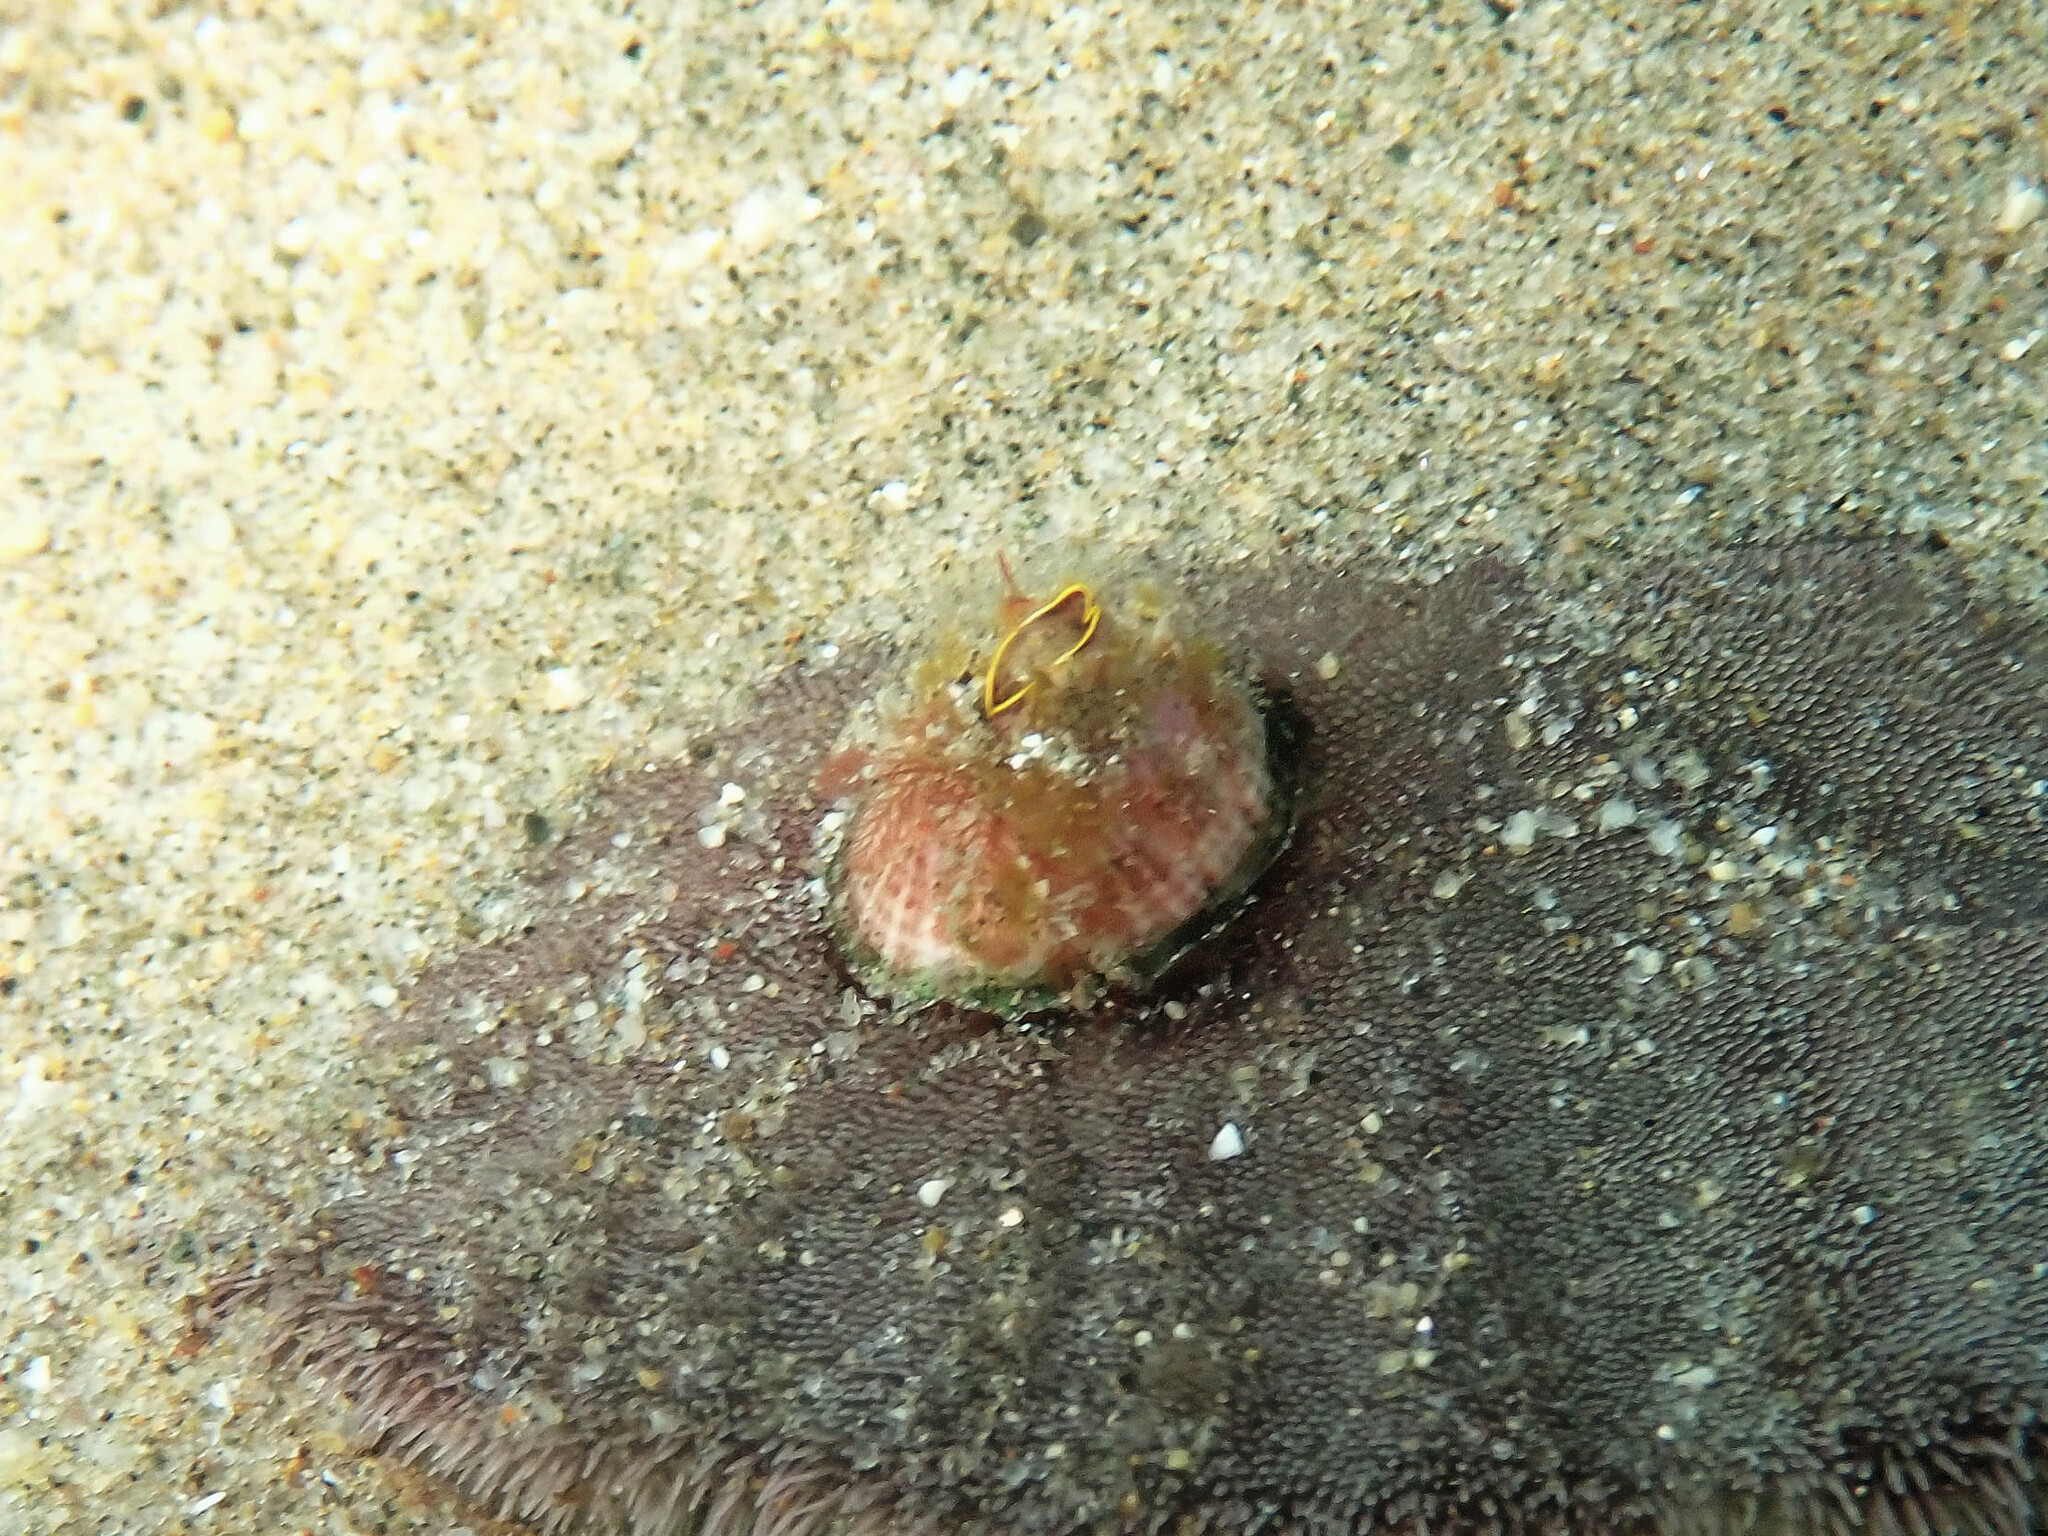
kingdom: Animalia
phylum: Arthropoda
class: Maxillopoda
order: Sessilia
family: Balanidae
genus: Paraconcavus
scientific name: Paraconcavus pacificus
